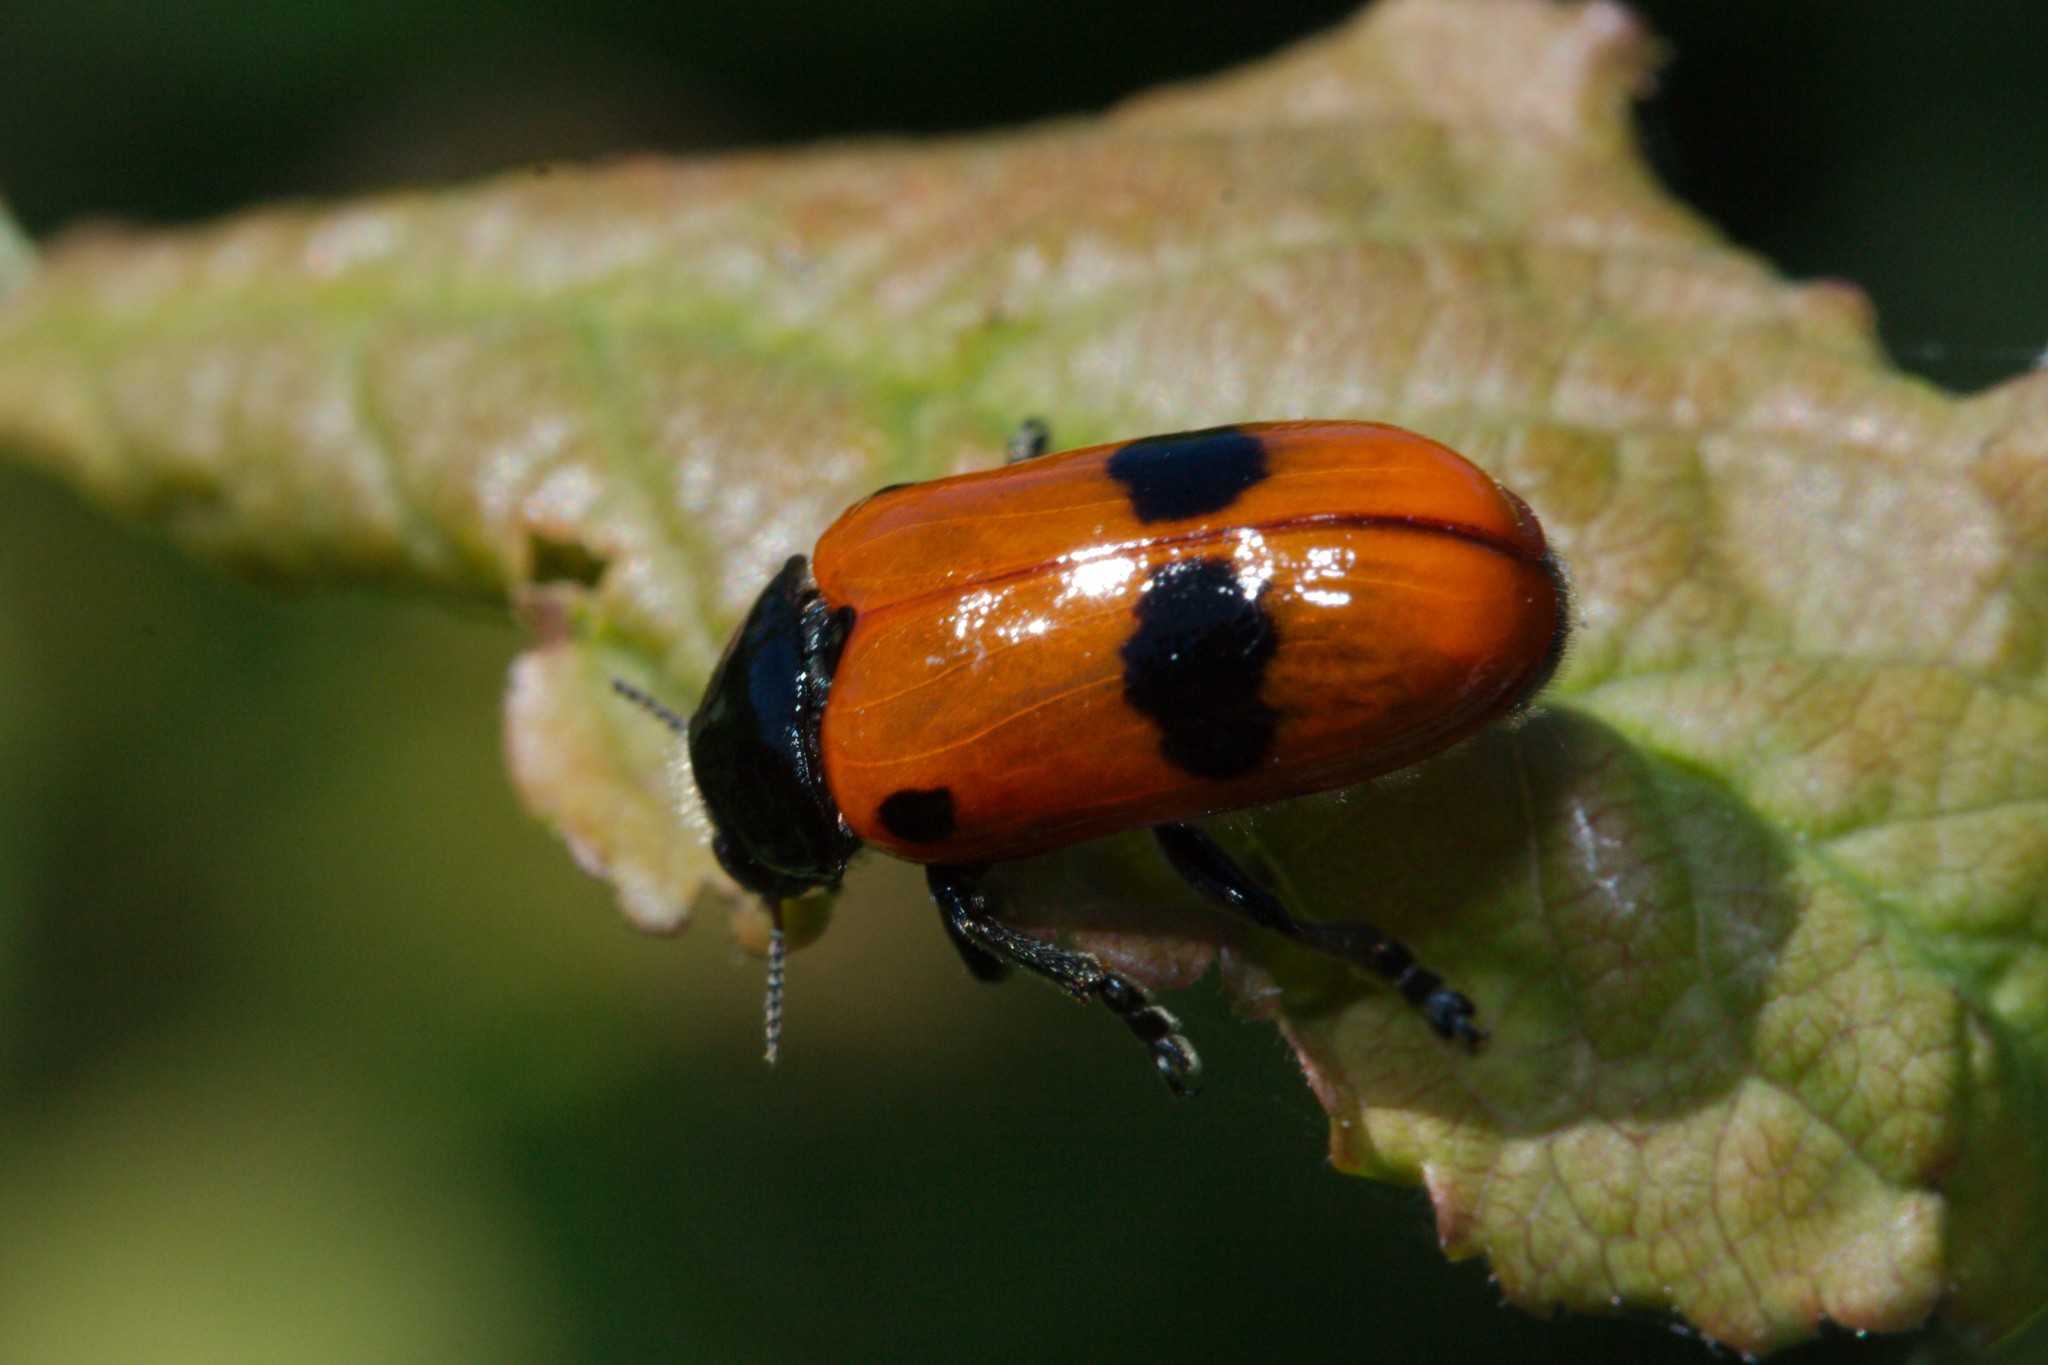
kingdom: Animalia
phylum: Arthropoda
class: Insecta
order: Coleoptera
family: Chrysomelidae
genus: Clytra
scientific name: Clytra laeviuscula
